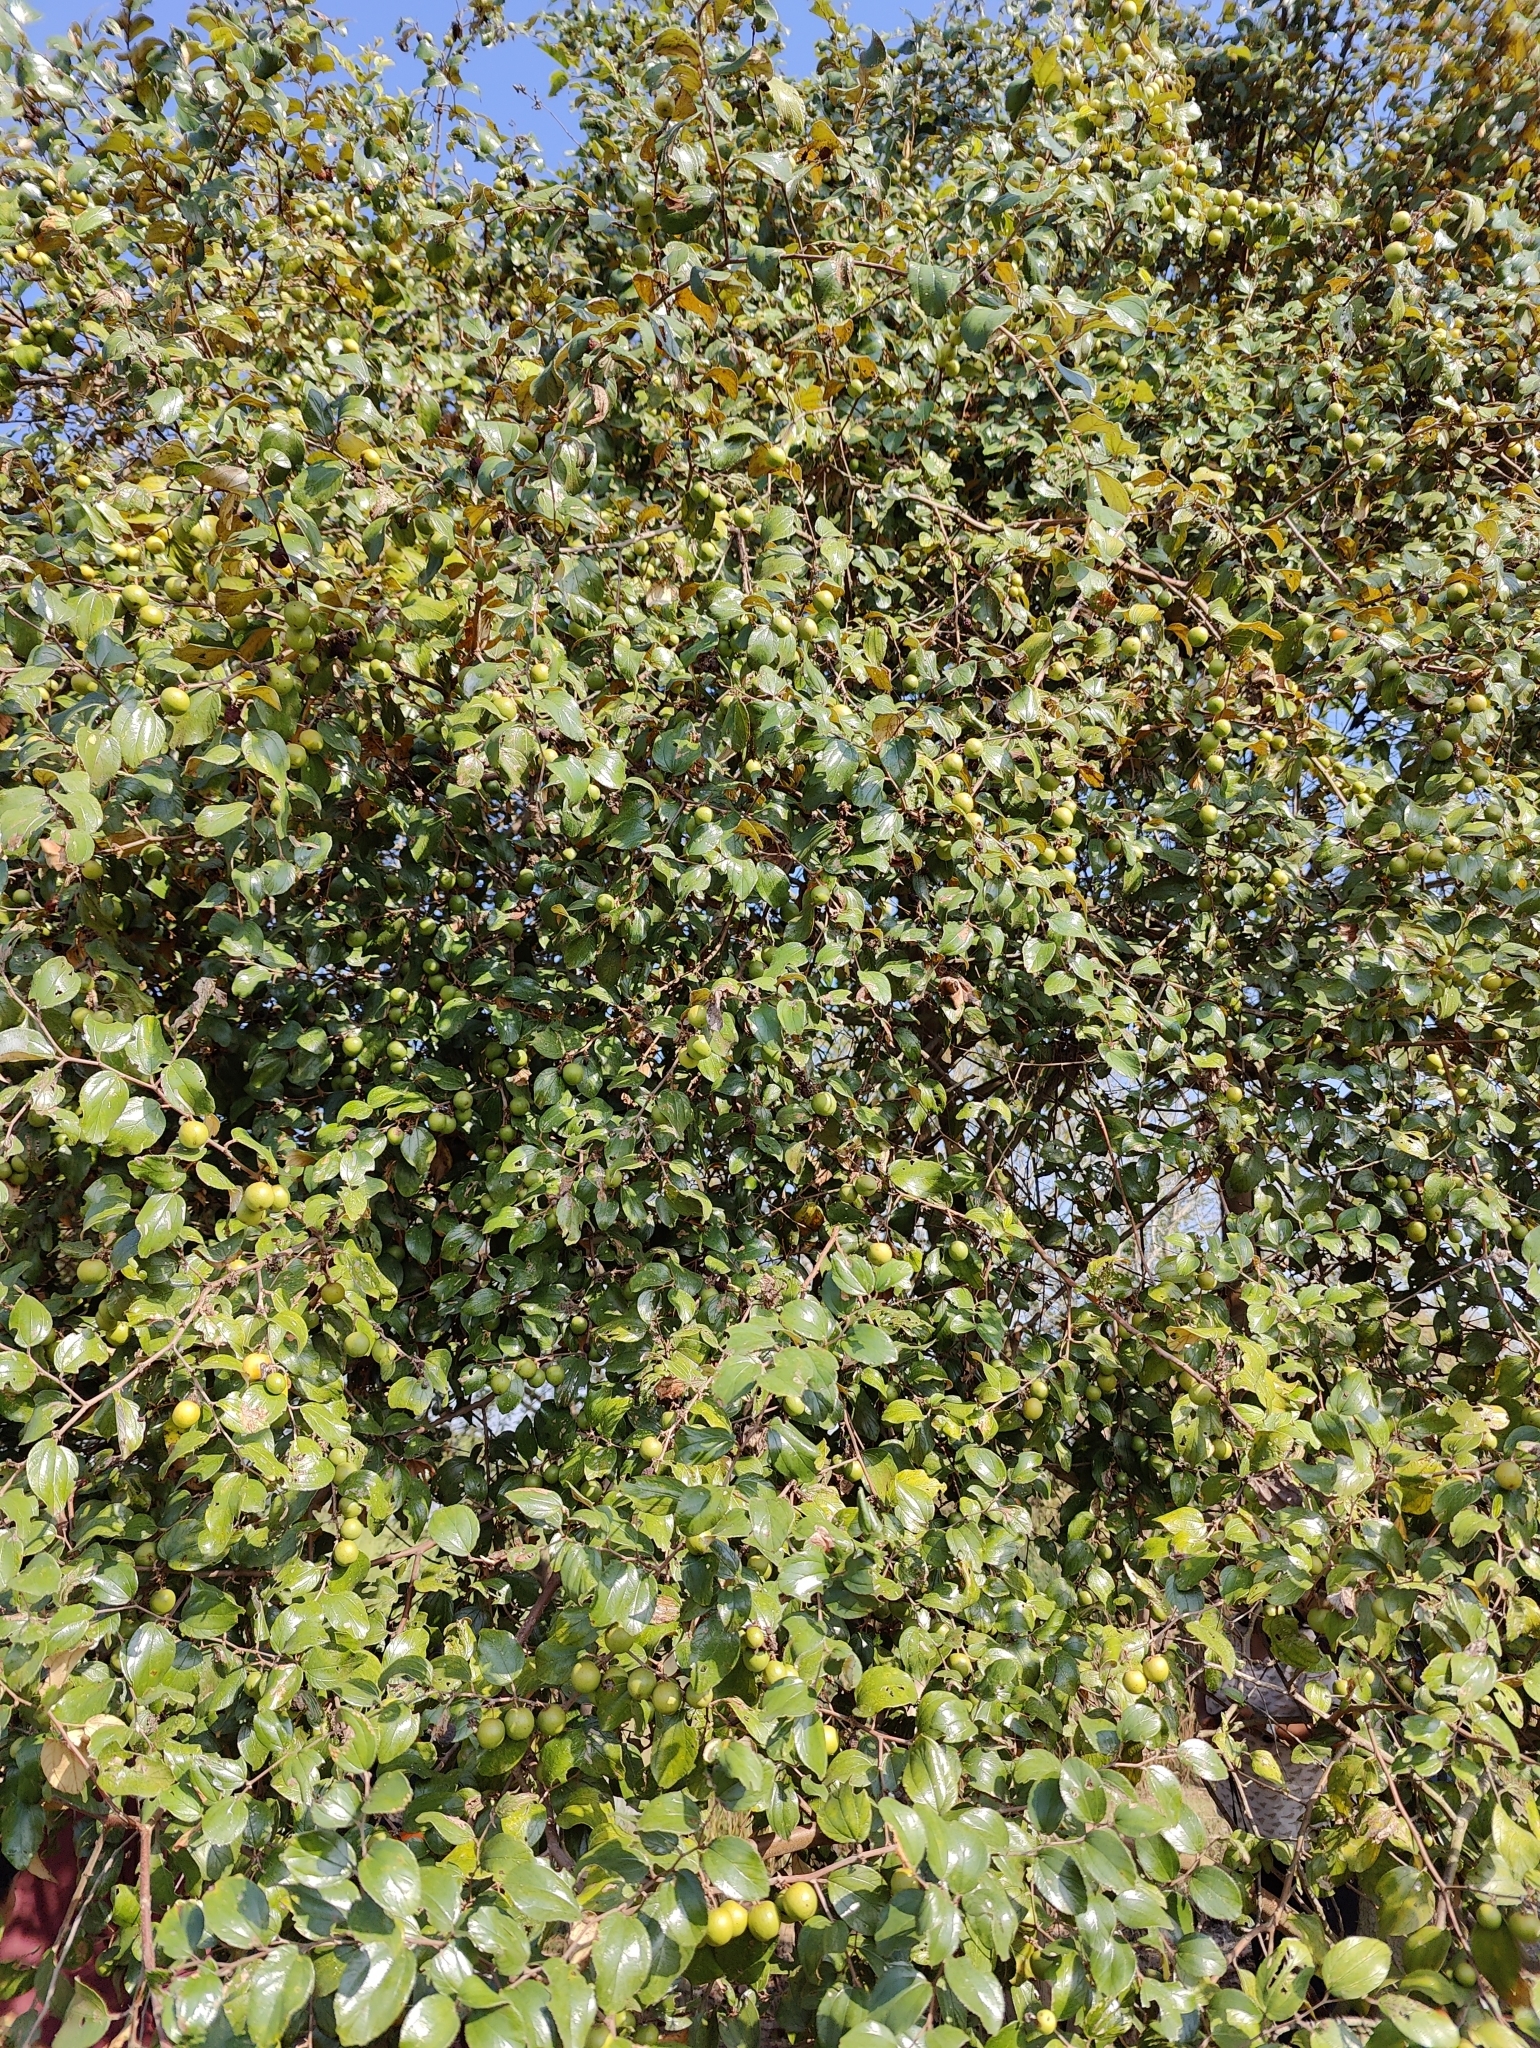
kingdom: Plantae
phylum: Tracheophyta
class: Magnoliopsida
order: Rosales
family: Rhamnaceae
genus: Ziziphus
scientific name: Ziziphus mauritiana
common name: Indian jujube
